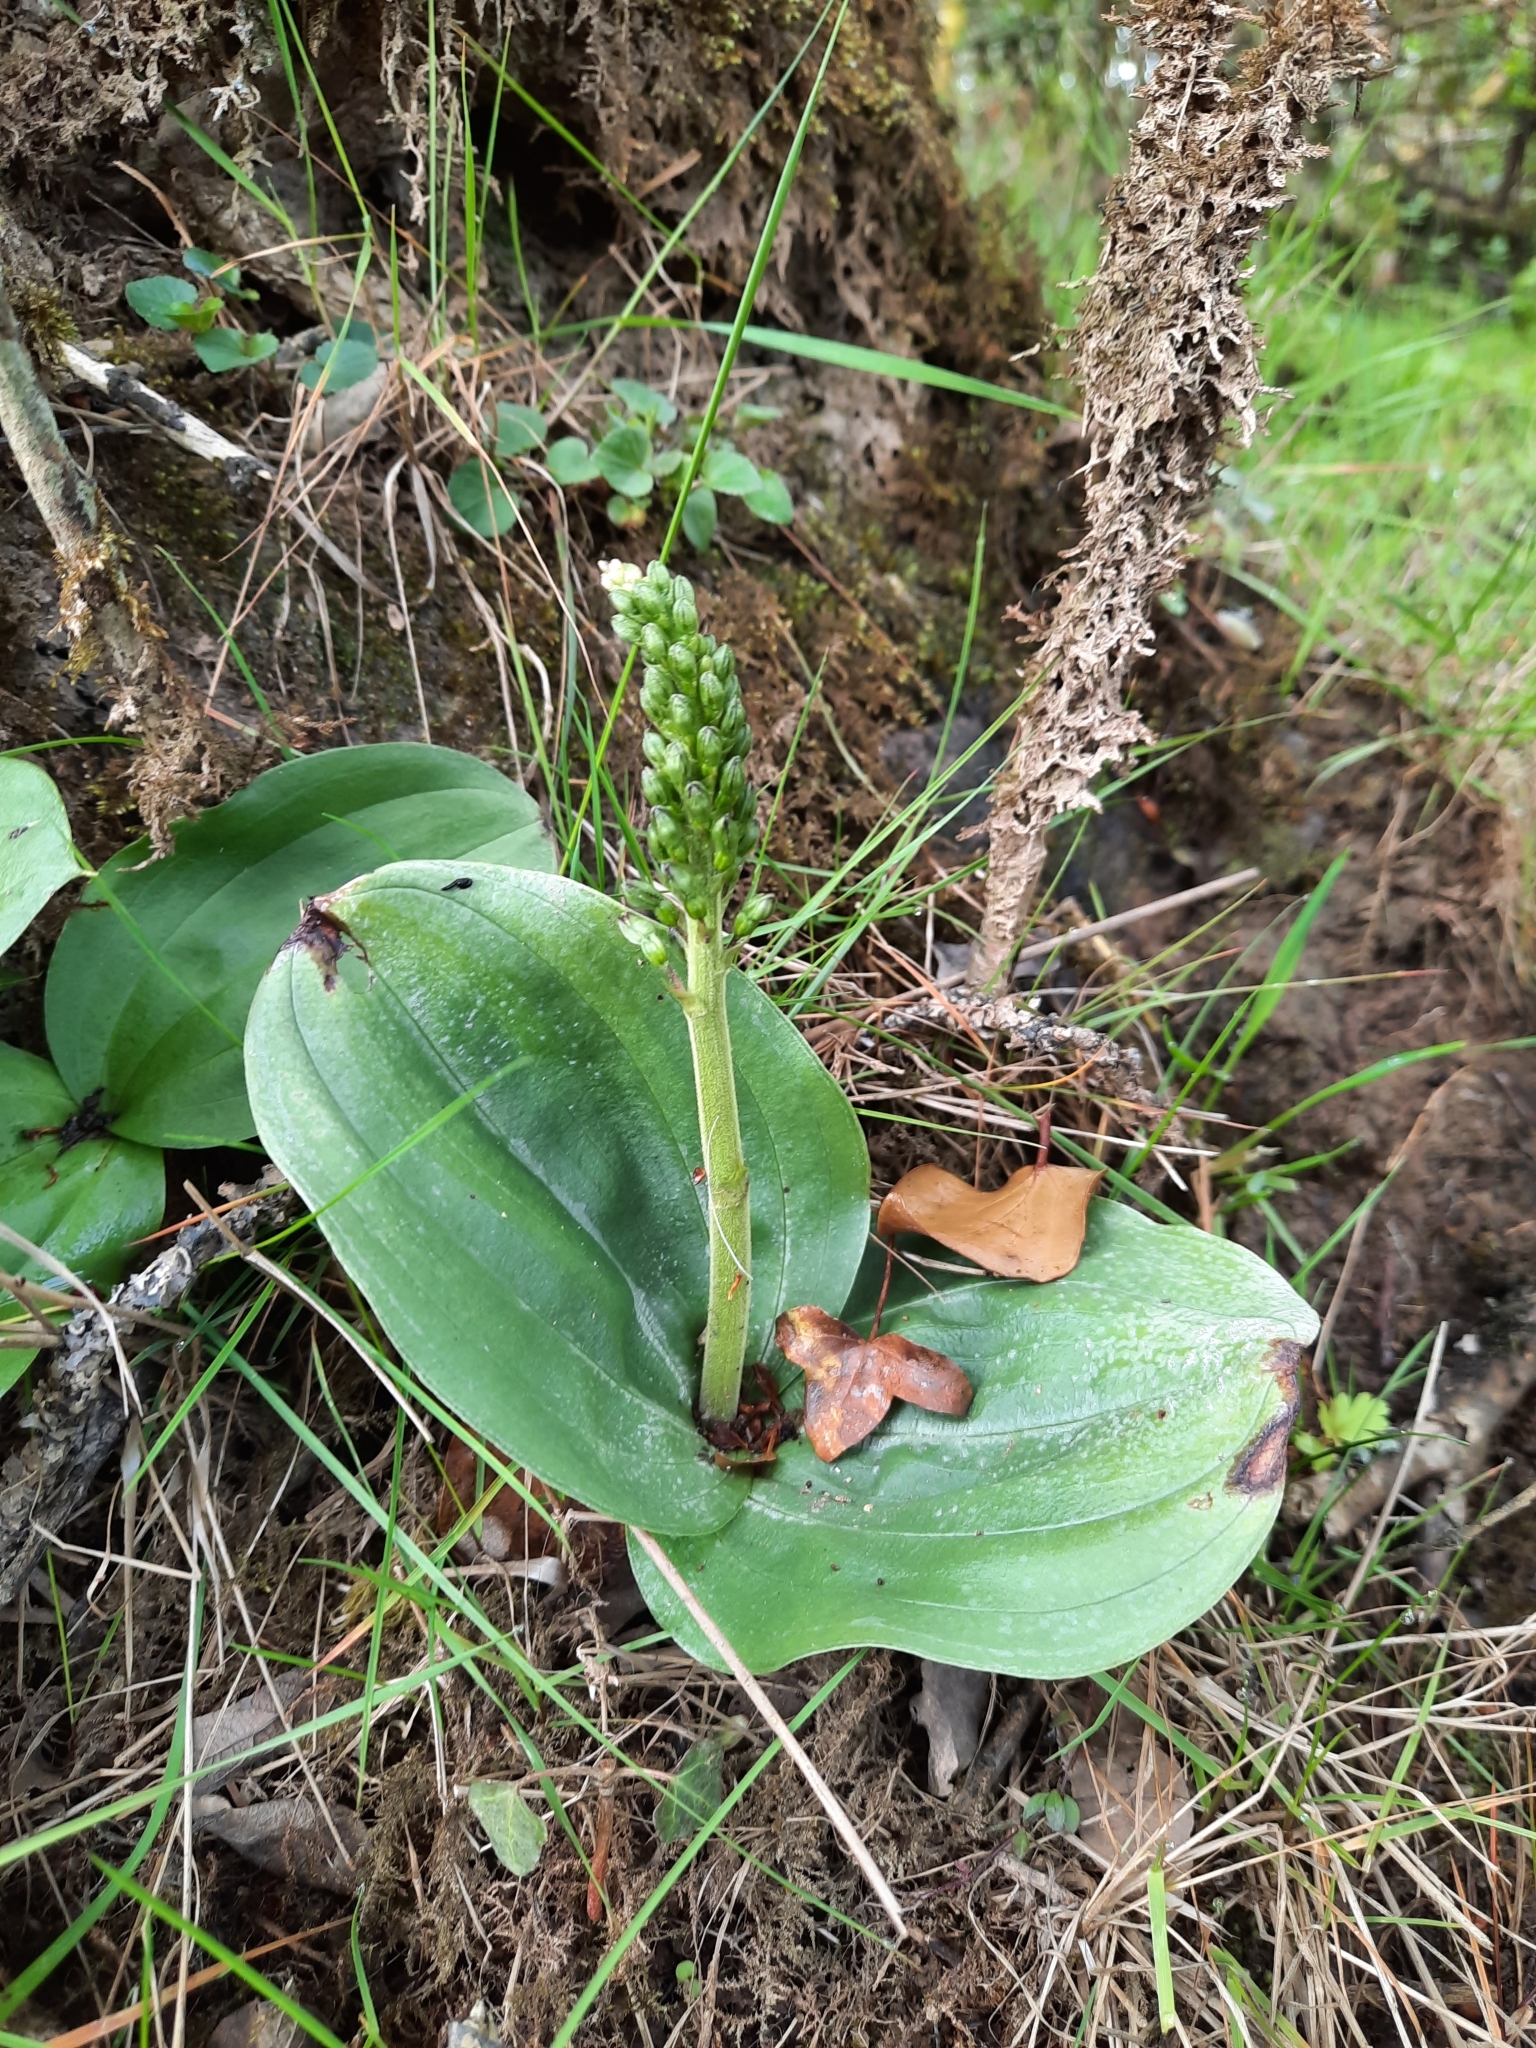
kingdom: Plantae
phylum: Tracheophyta
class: Liliopsida
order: Asparagales
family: Orchidaceae
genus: Neottia
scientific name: Neottia ovata
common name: Common twayblade
